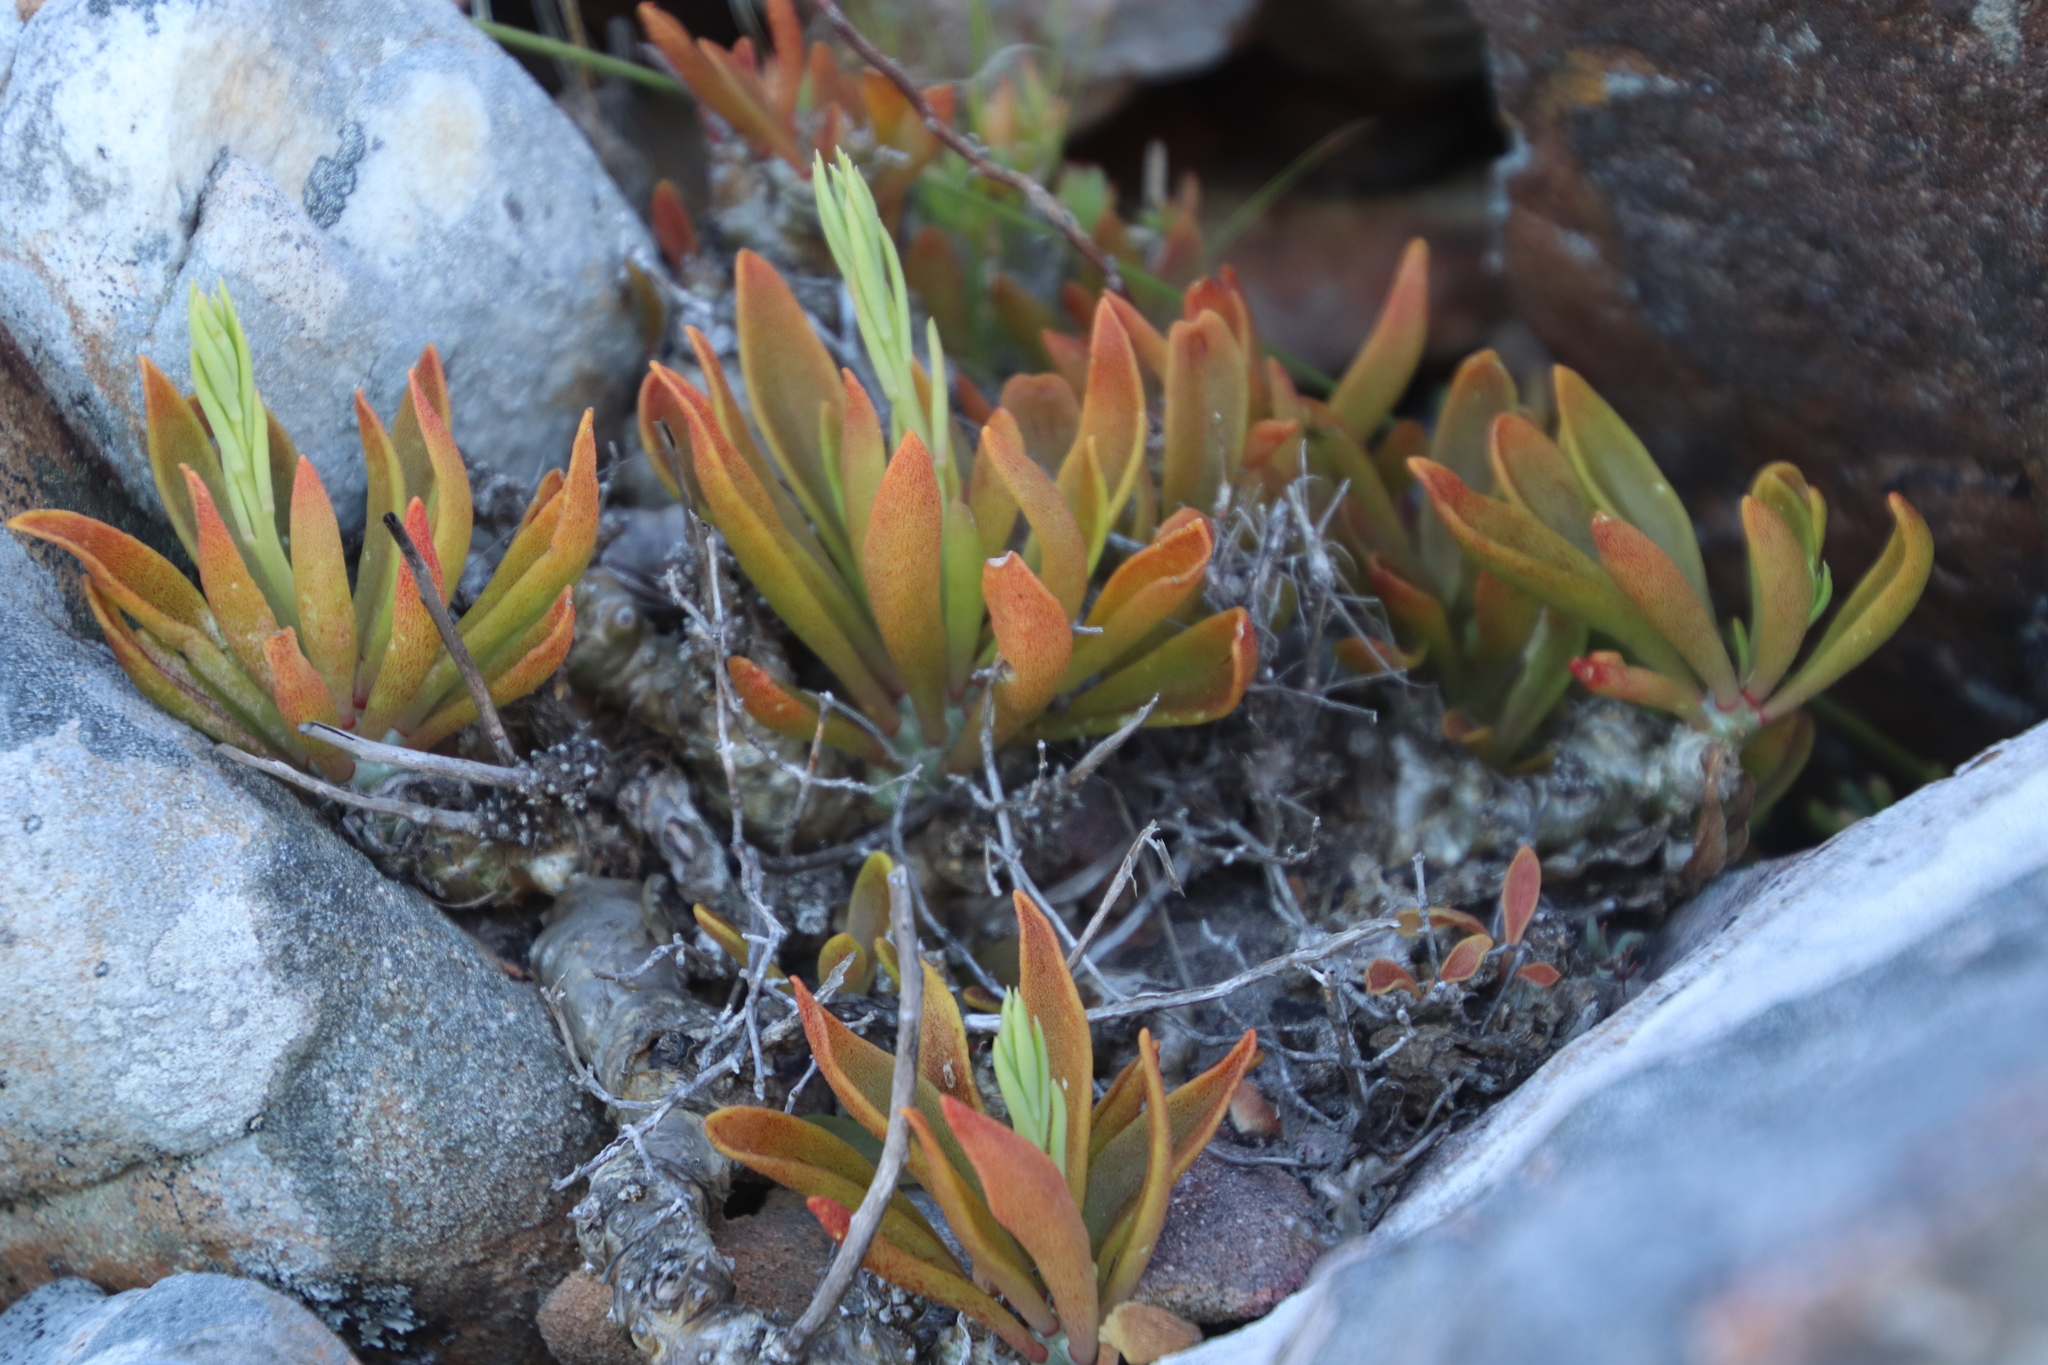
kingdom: Plantae
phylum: Tracheophyta
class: Magnoliopsida
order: Saxifragales
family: Crassulaceae
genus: Tylecodon
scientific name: Tylecodon grandiflorus
